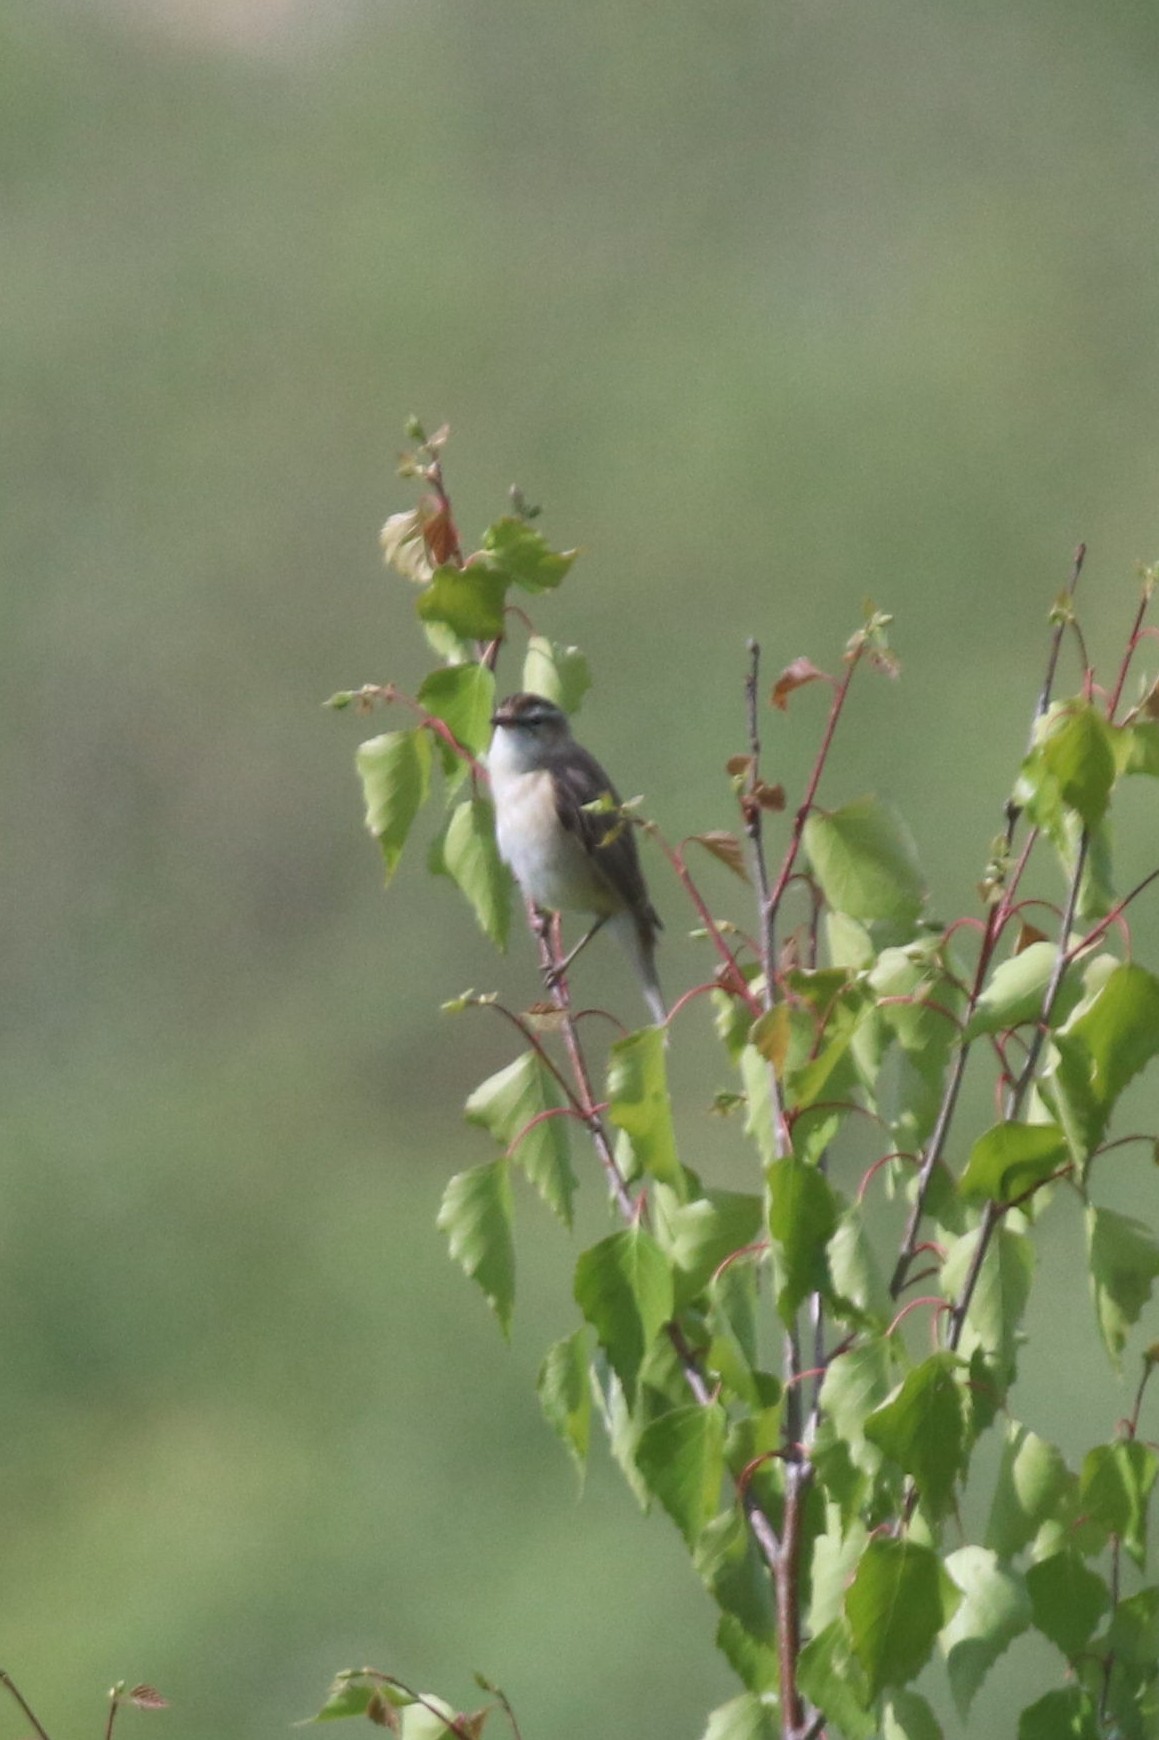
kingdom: Animalia
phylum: Chordata
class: Aves
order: Passeriformes
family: Acrocephalidae
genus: Acrocephalus
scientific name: Acrocephalus schoenobaenus
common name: Sedge warbler
